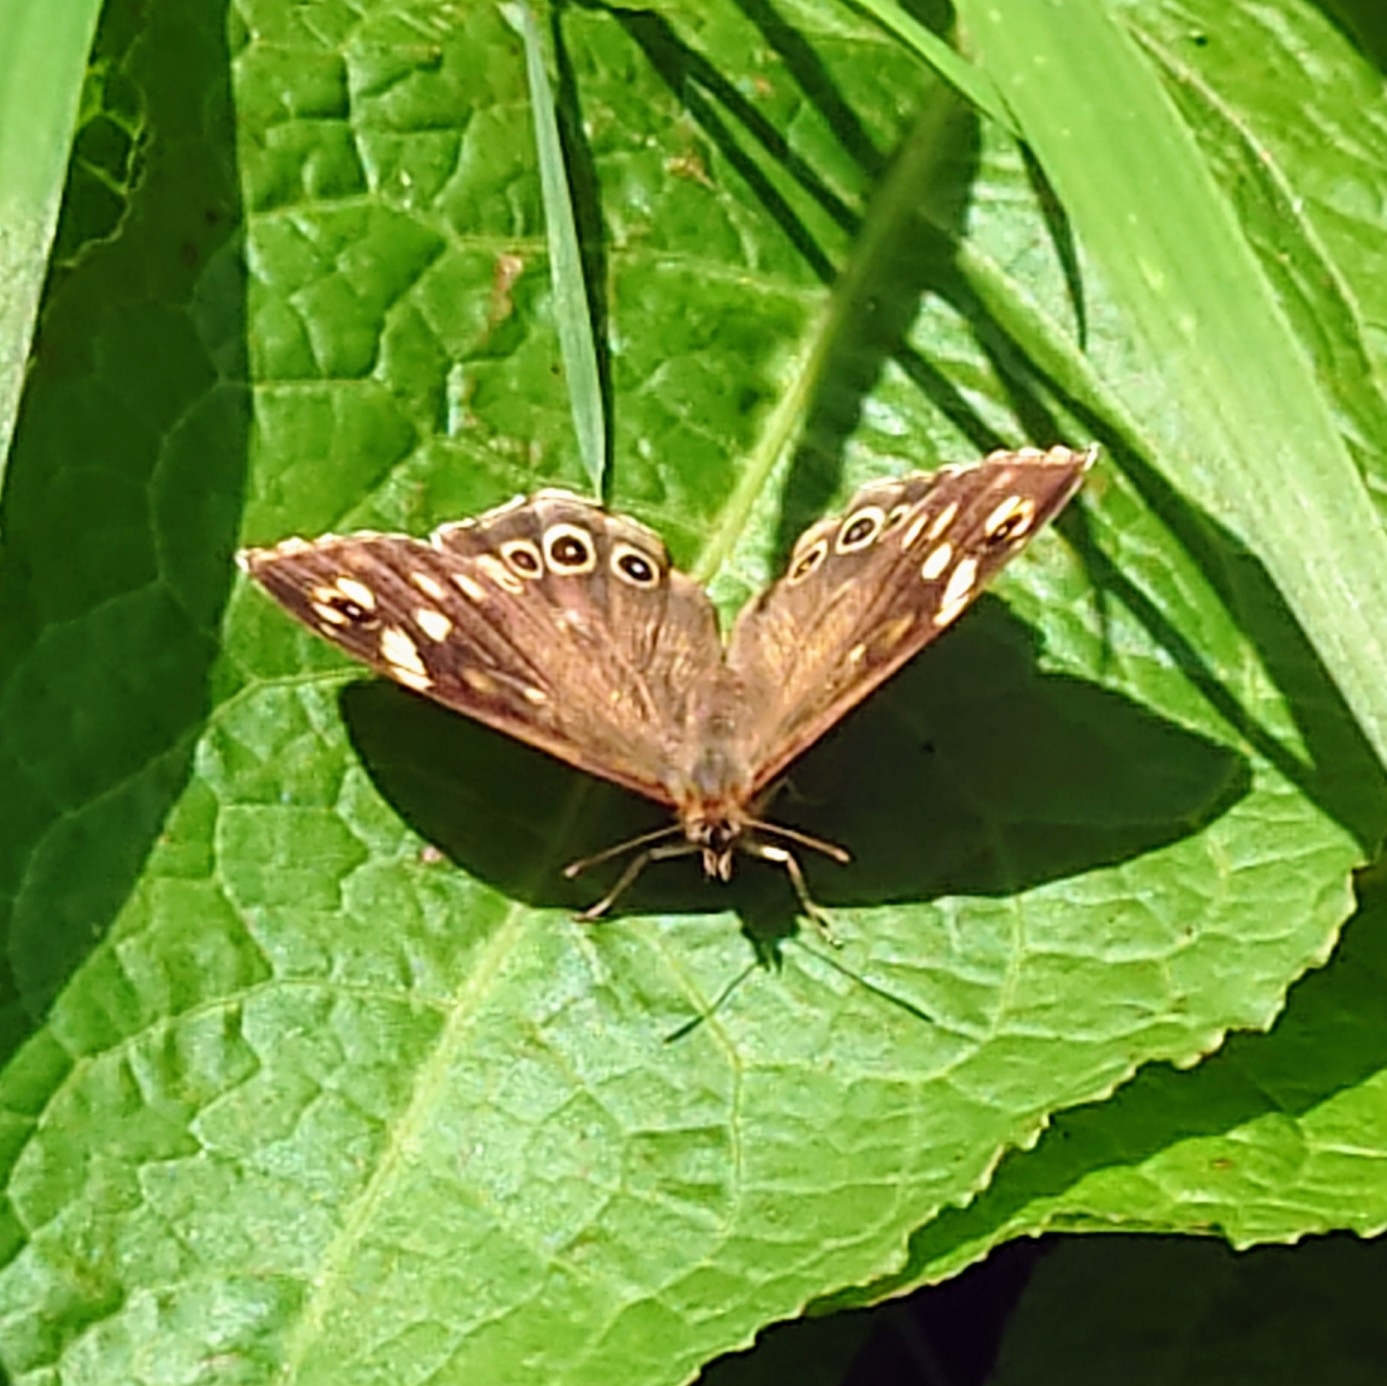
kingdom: Animalia
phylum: Arthropoda
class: Insecta
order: Lepidoptera
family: Nymphalidae
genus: Pararge
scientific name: Pararge aegeria
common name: Speckled wood
